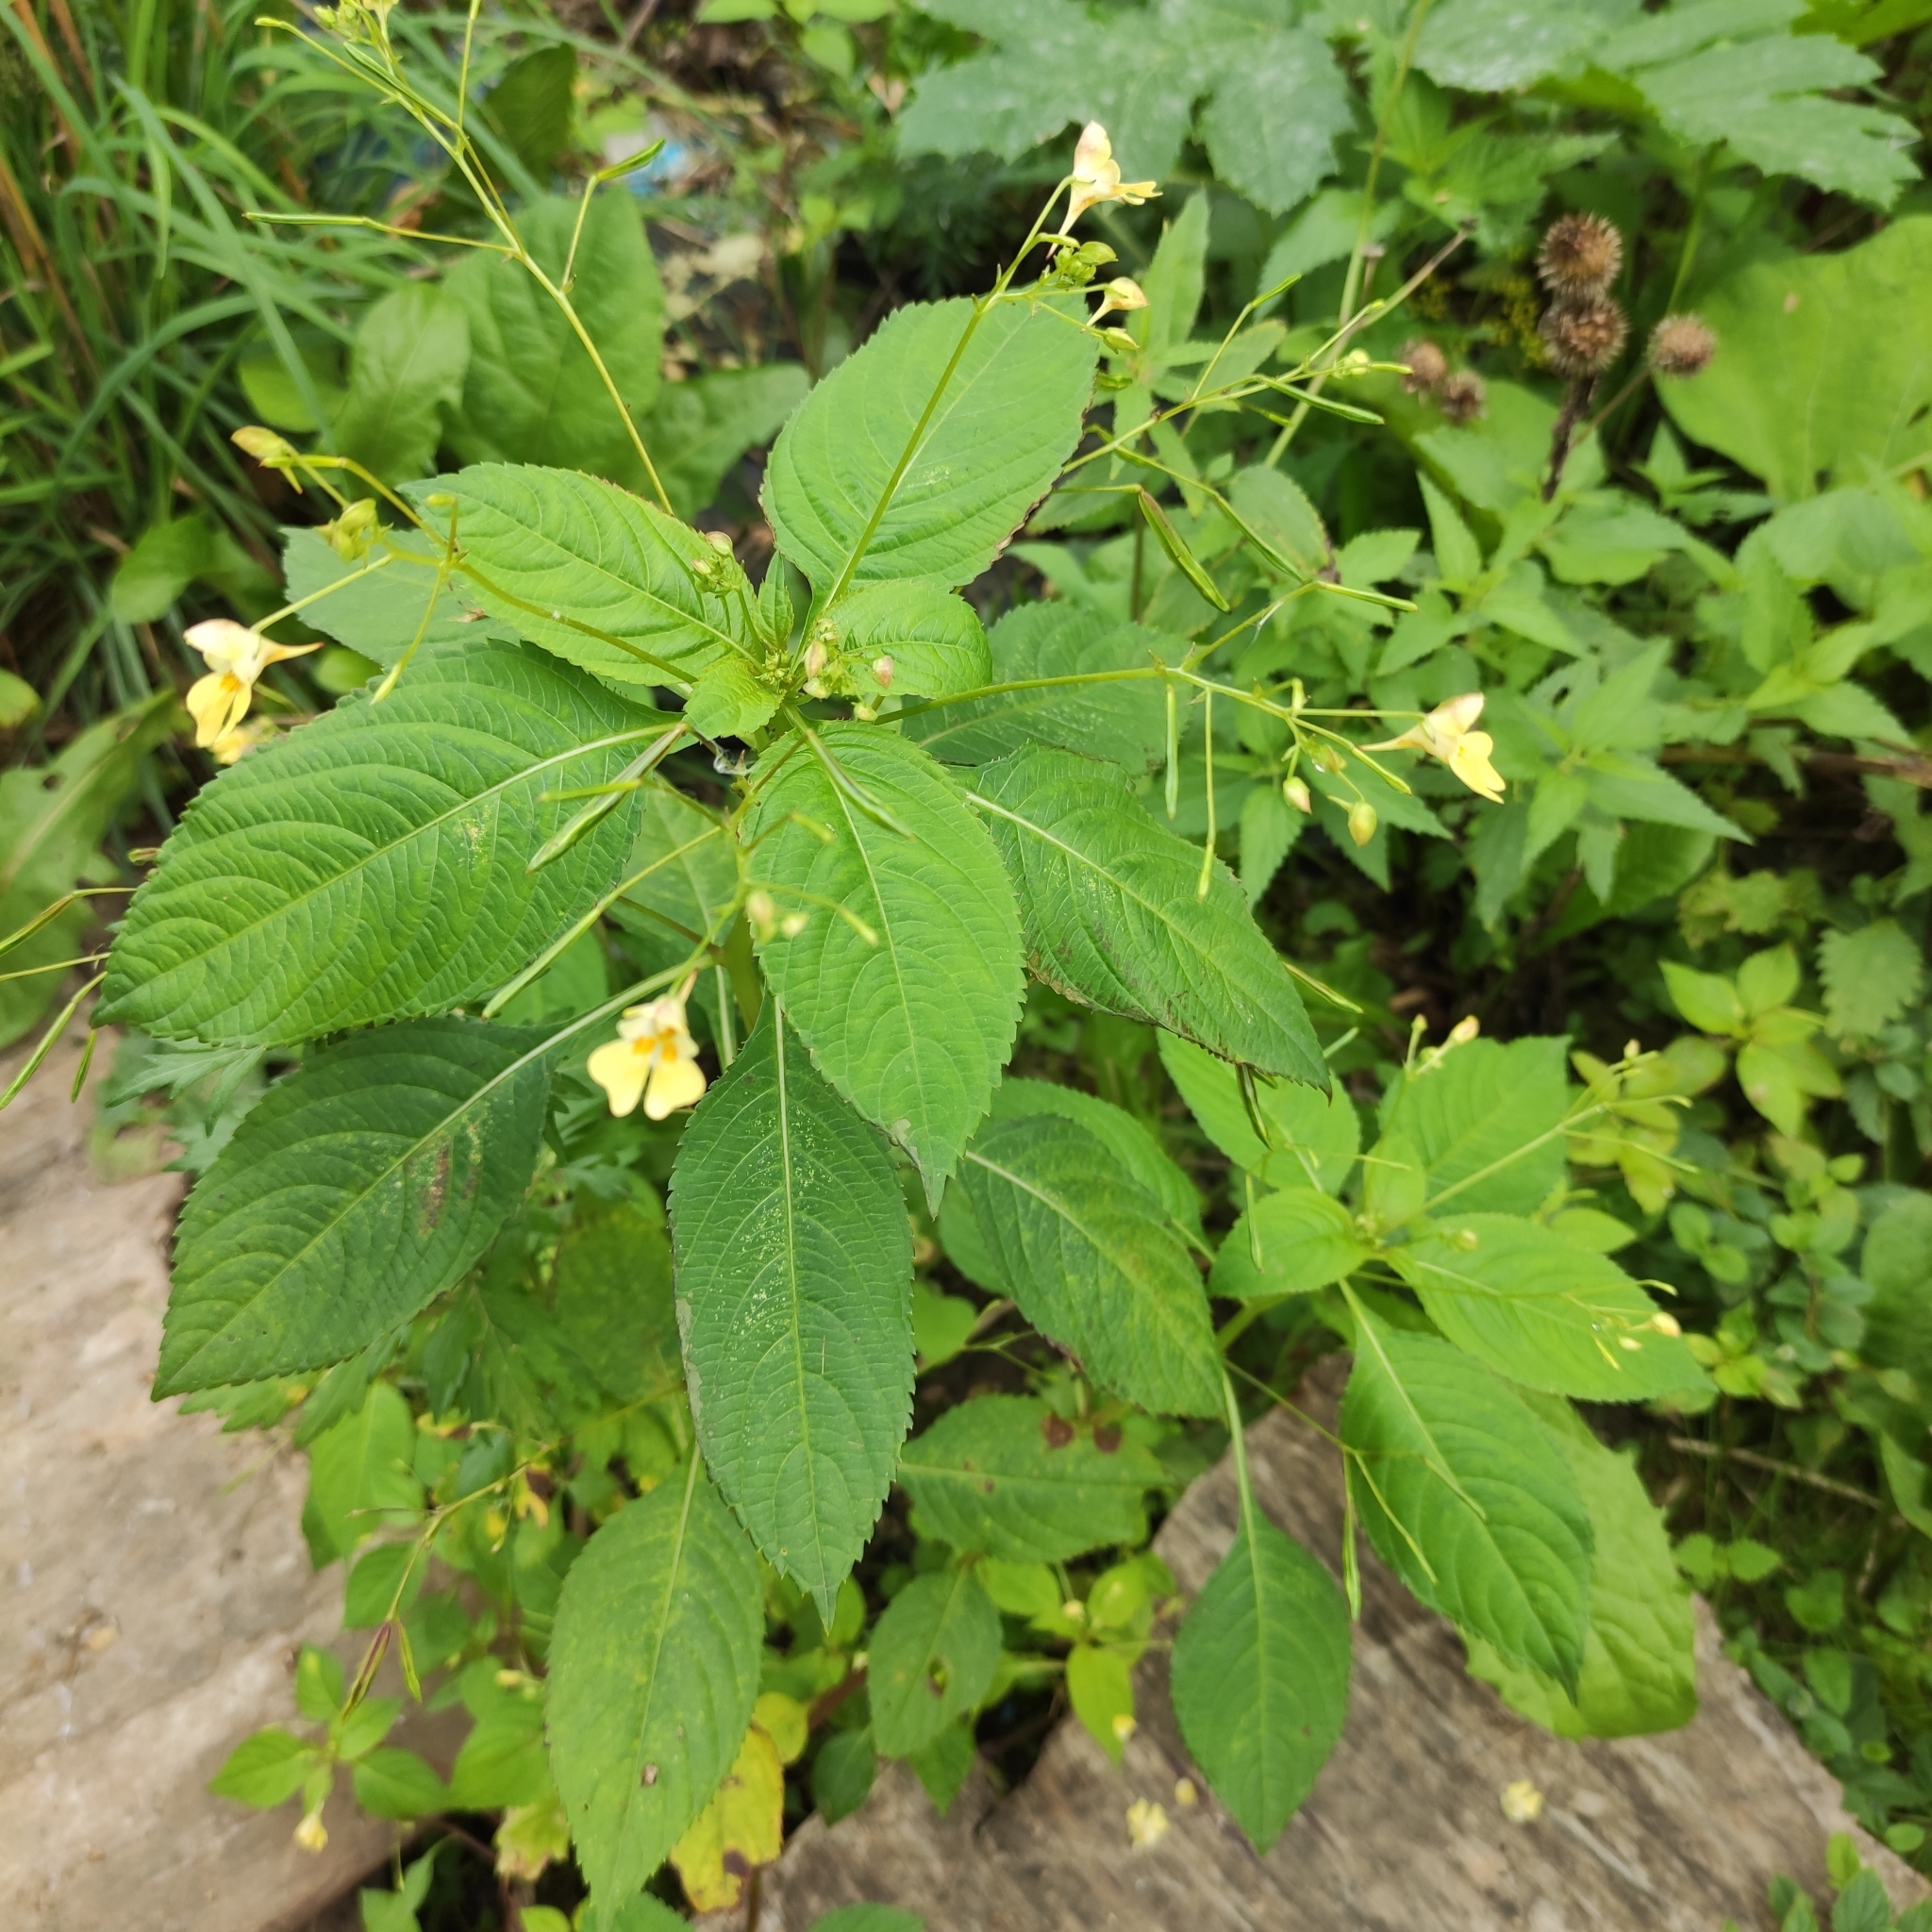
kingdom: Plantae
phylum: Tracheophyta
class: Magnoliopsida
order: Ericales
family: Balsaminaceae
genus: Impatiens
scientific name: Impatiens parviflora
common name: Small balsam
